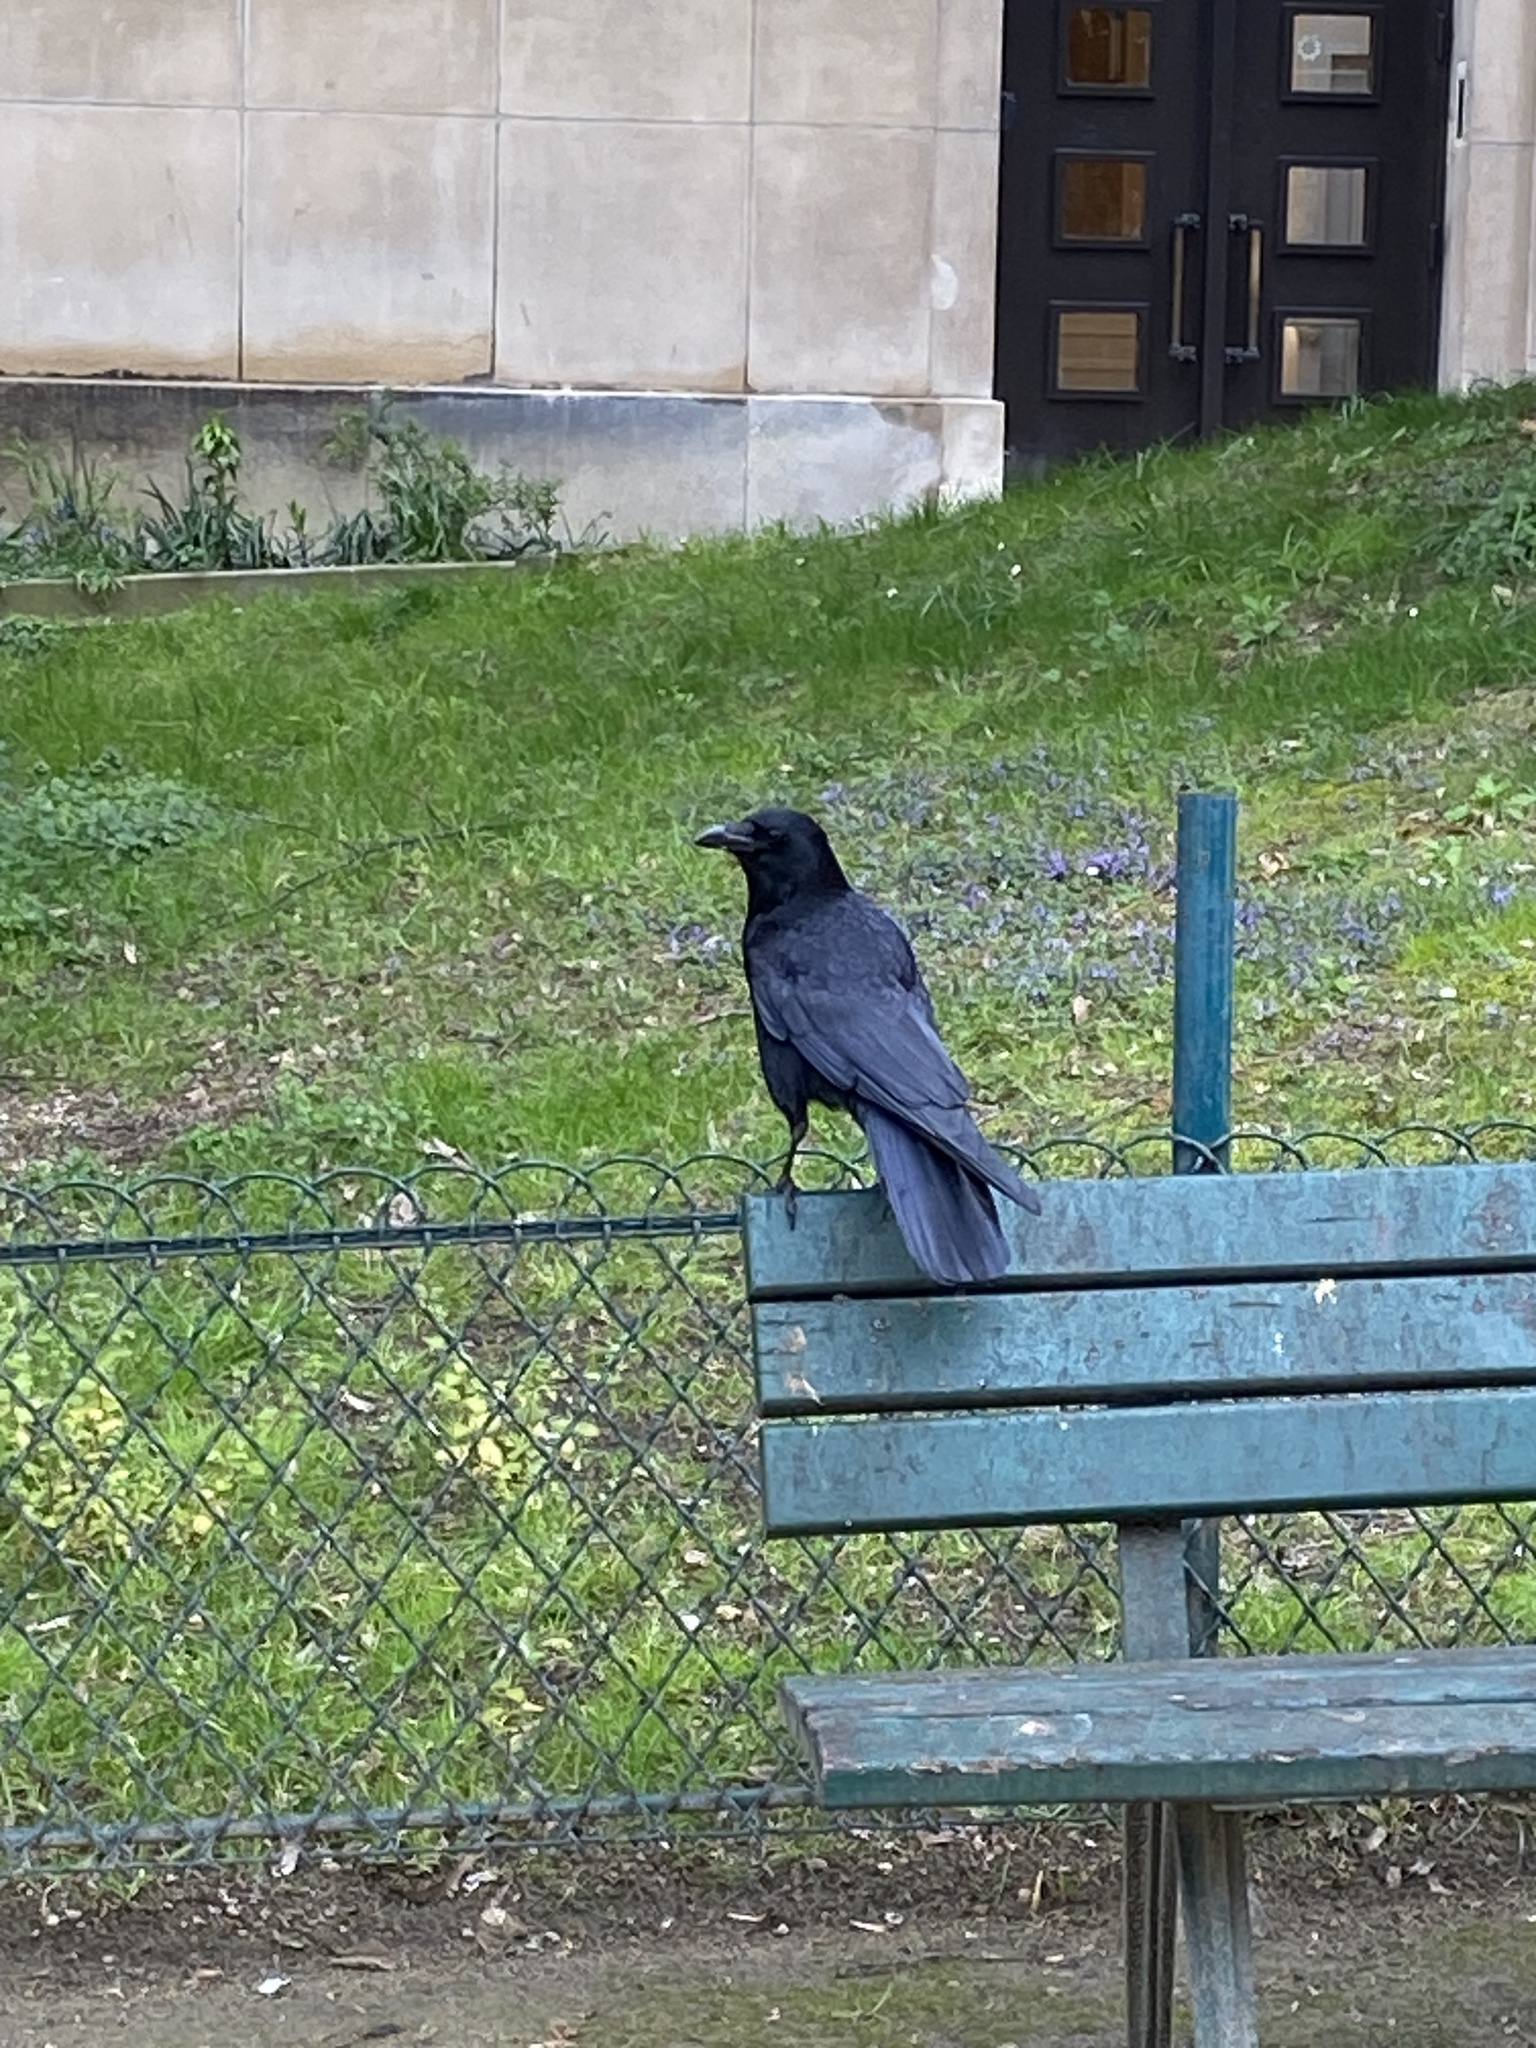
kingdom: Animalia
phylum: Chordata
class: Aves
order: Passeriformes
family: Corvidae
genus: Corvus
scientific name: Corvus corone
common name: Carrion crow
